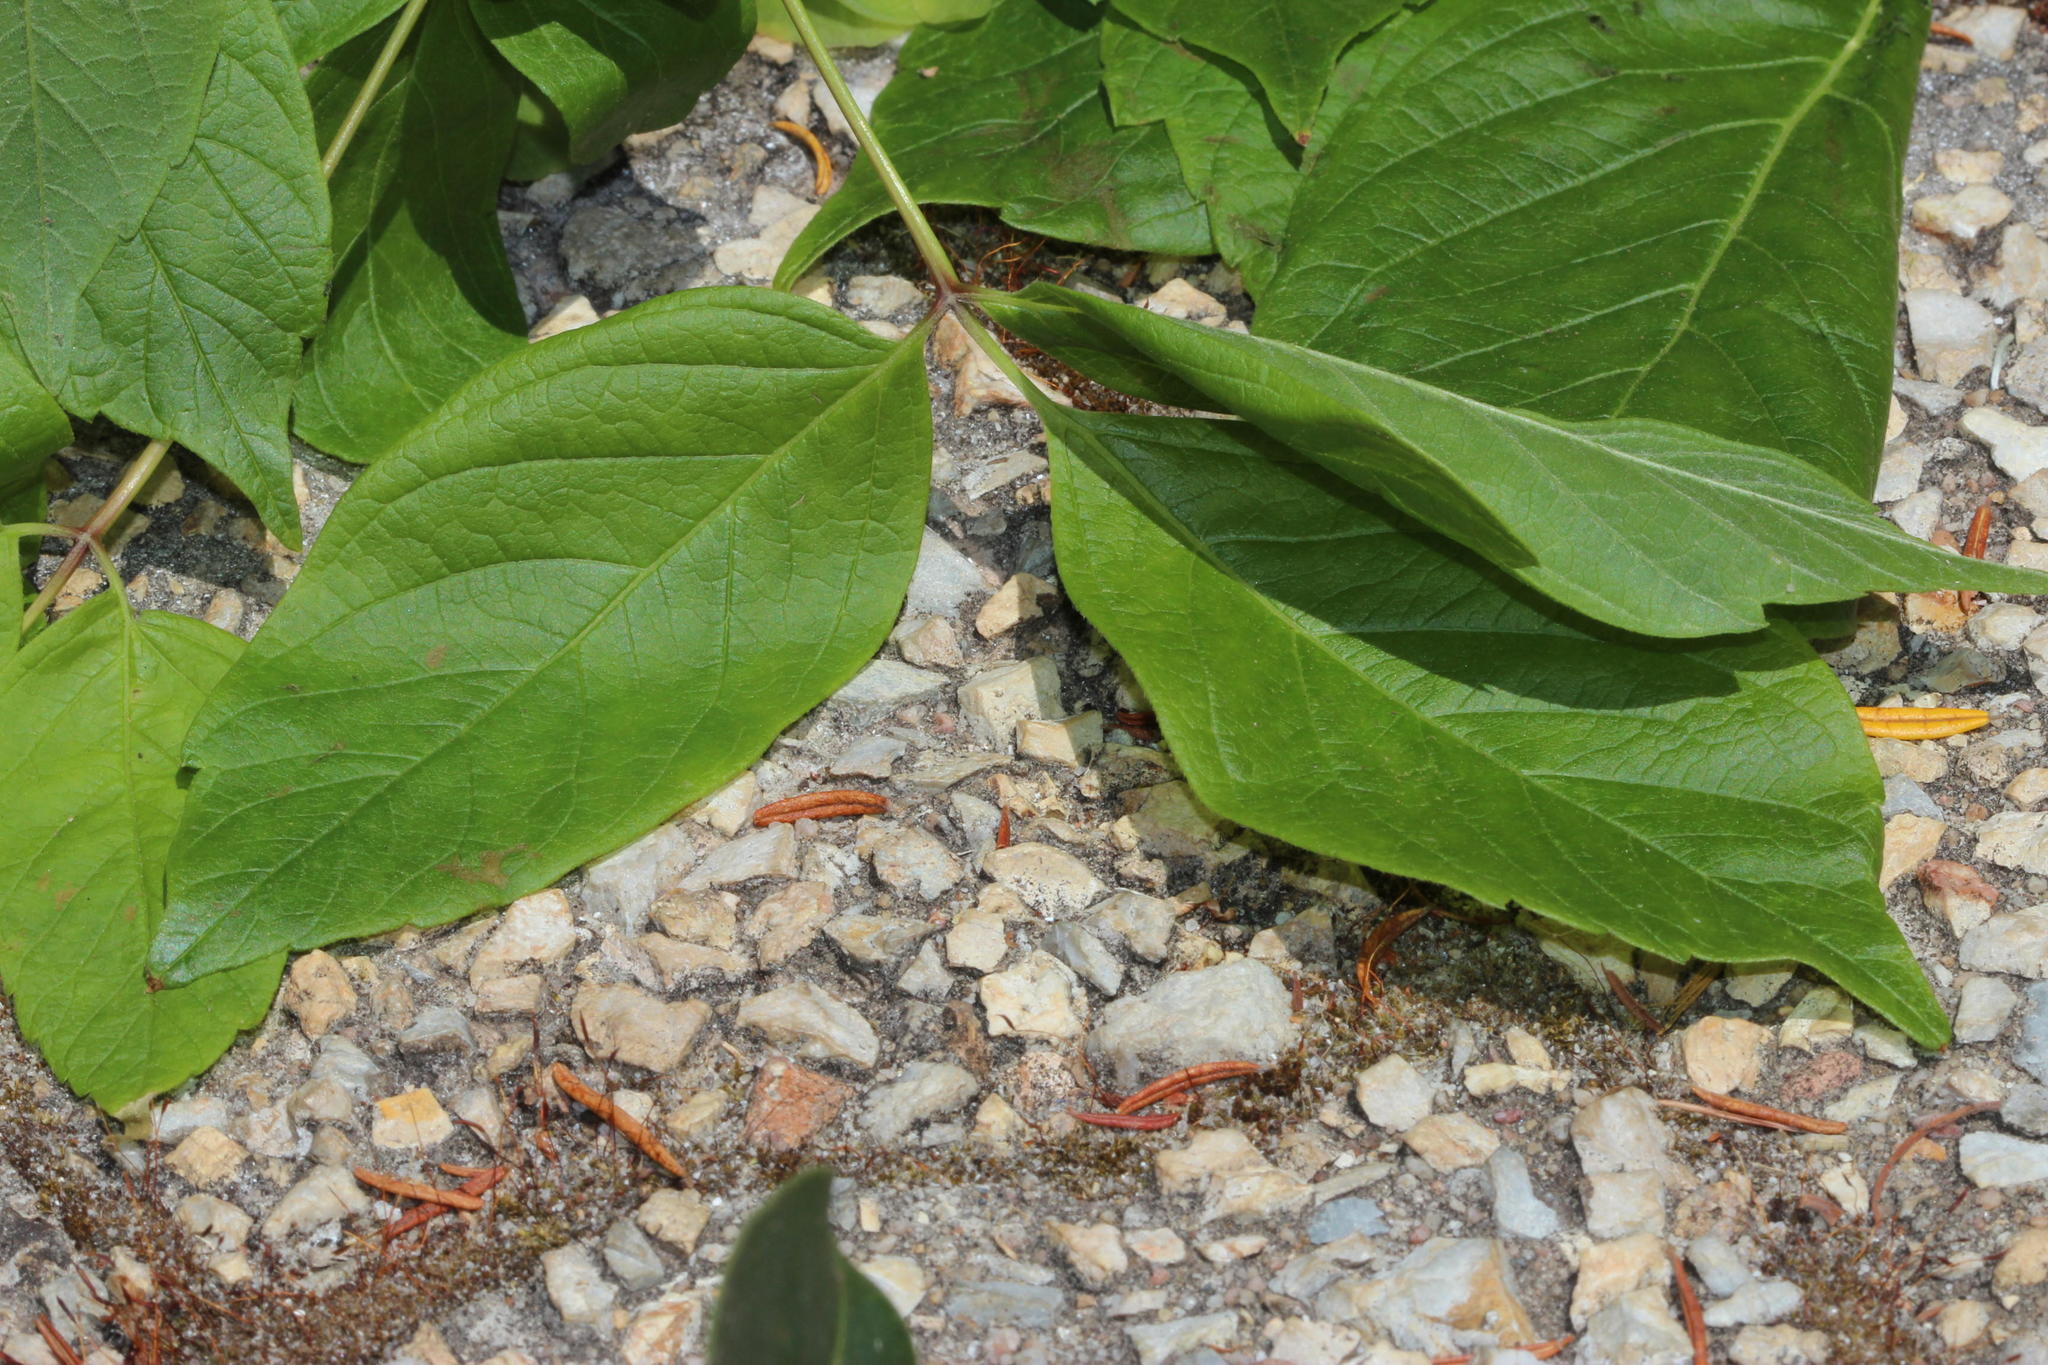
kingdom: Plantae
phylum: Tracheophyta
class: Magnoliopsida
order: Sapindales
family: Sapindaceae
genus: Acer
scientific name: Acer negundo
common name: Ashleaf maple
